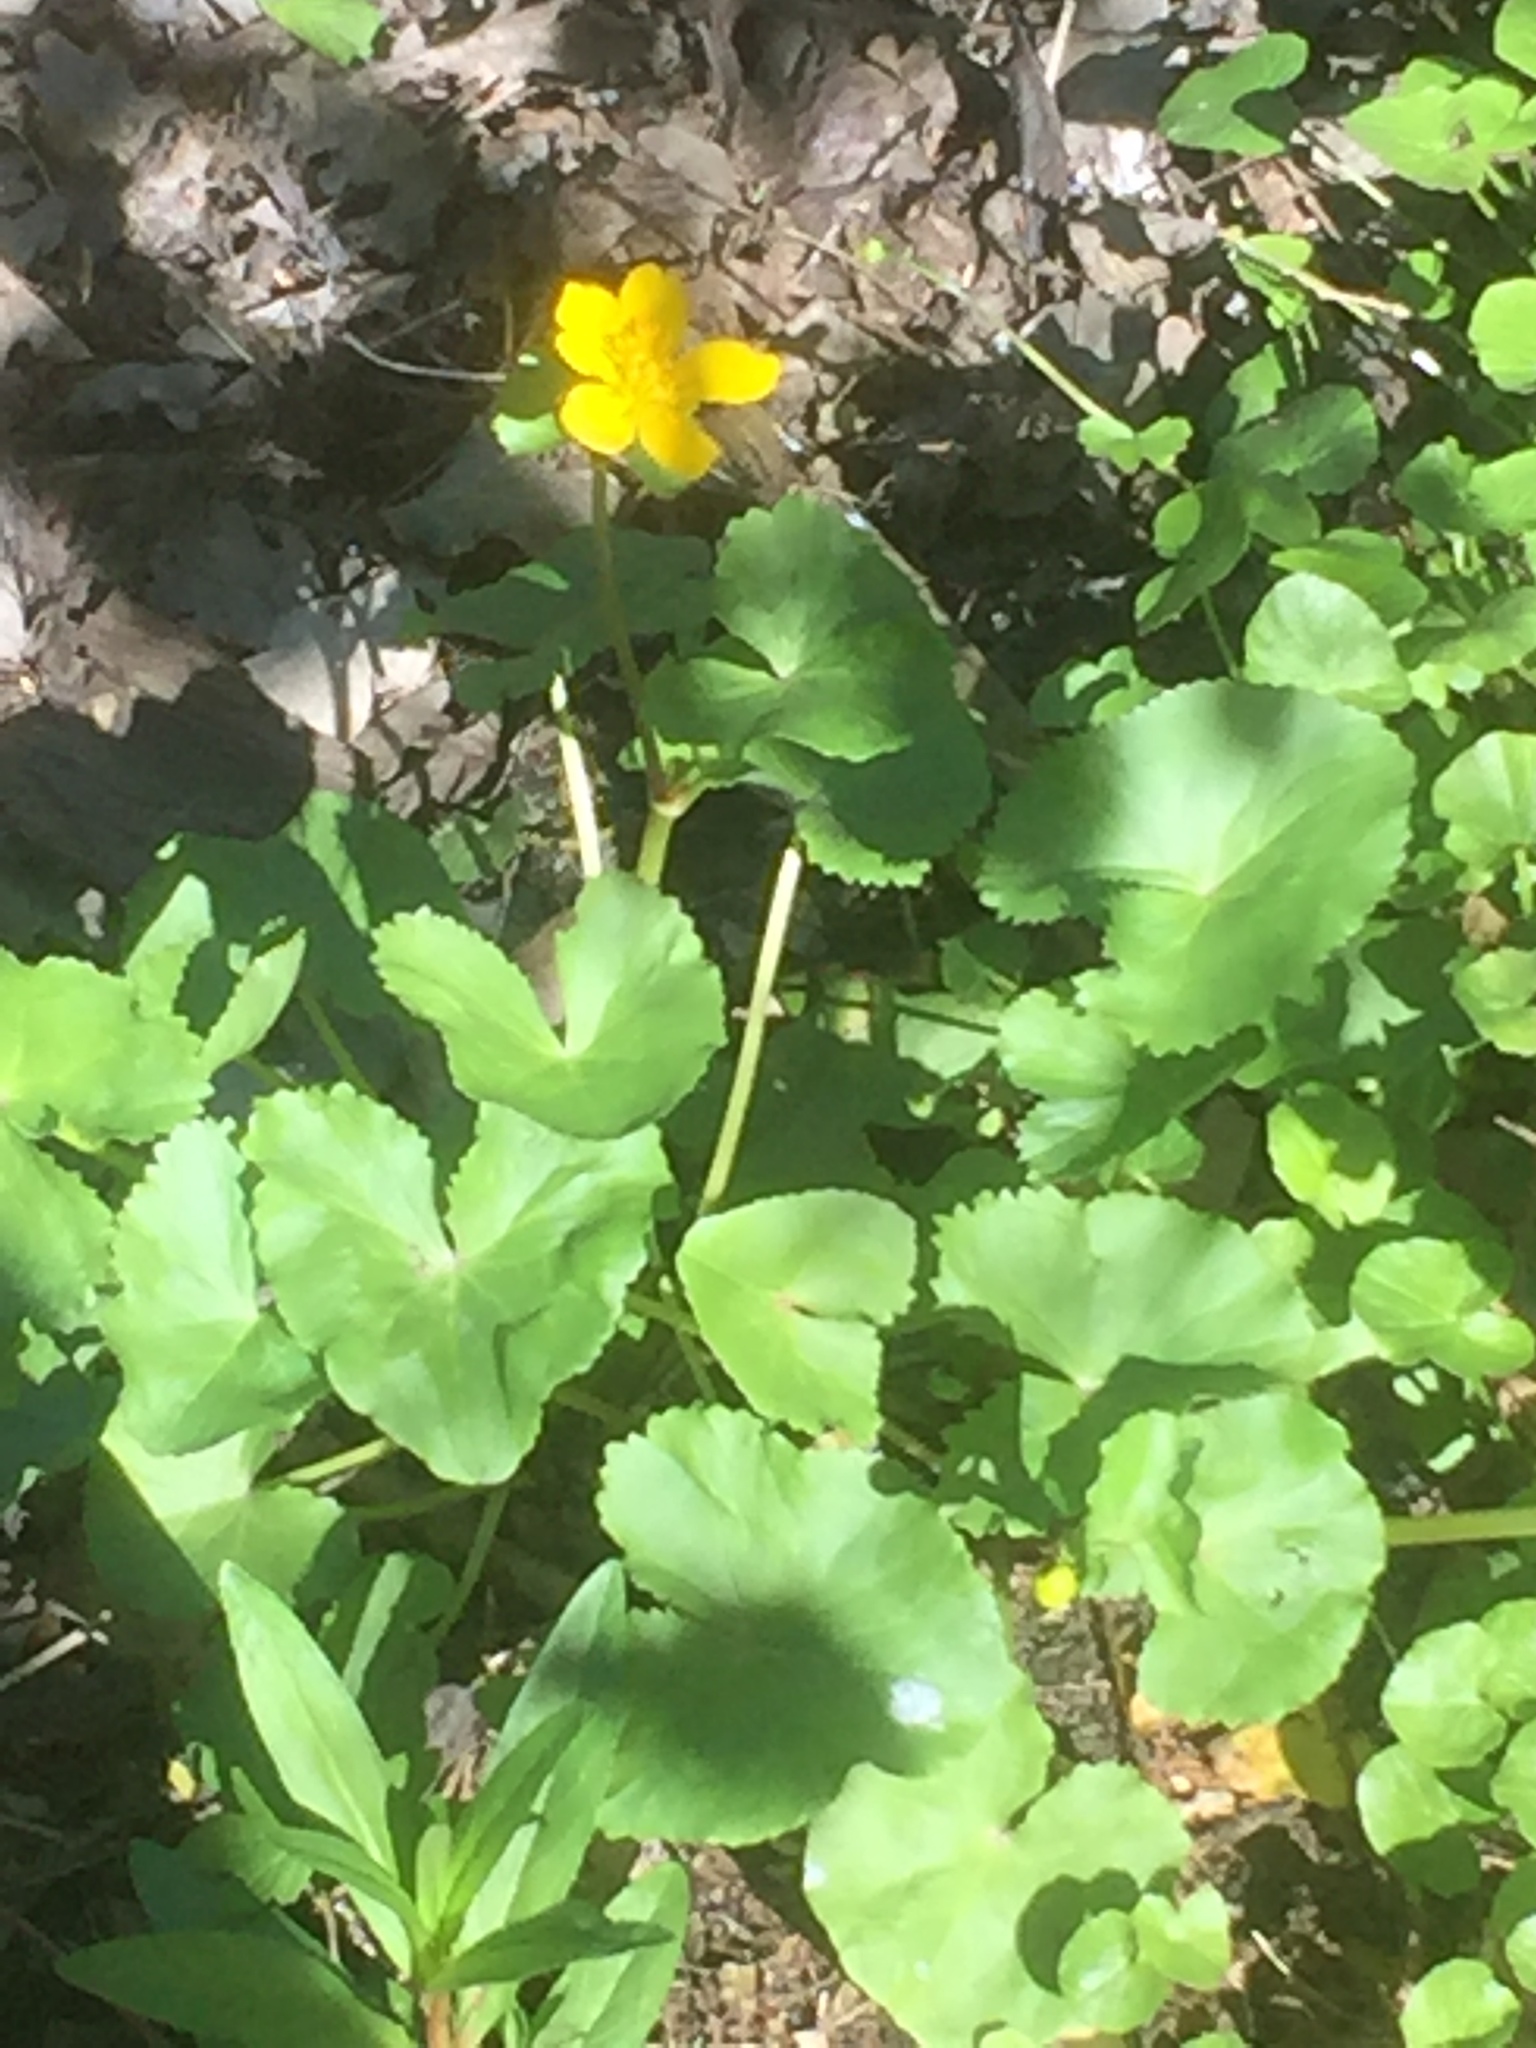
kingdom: Plantae
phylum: Tracheophyta
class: Magnoliopsida
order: Ranunculales
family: Ranunculaceae
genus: Caltha
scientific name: Caltha palustris
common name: Marsh marigold
